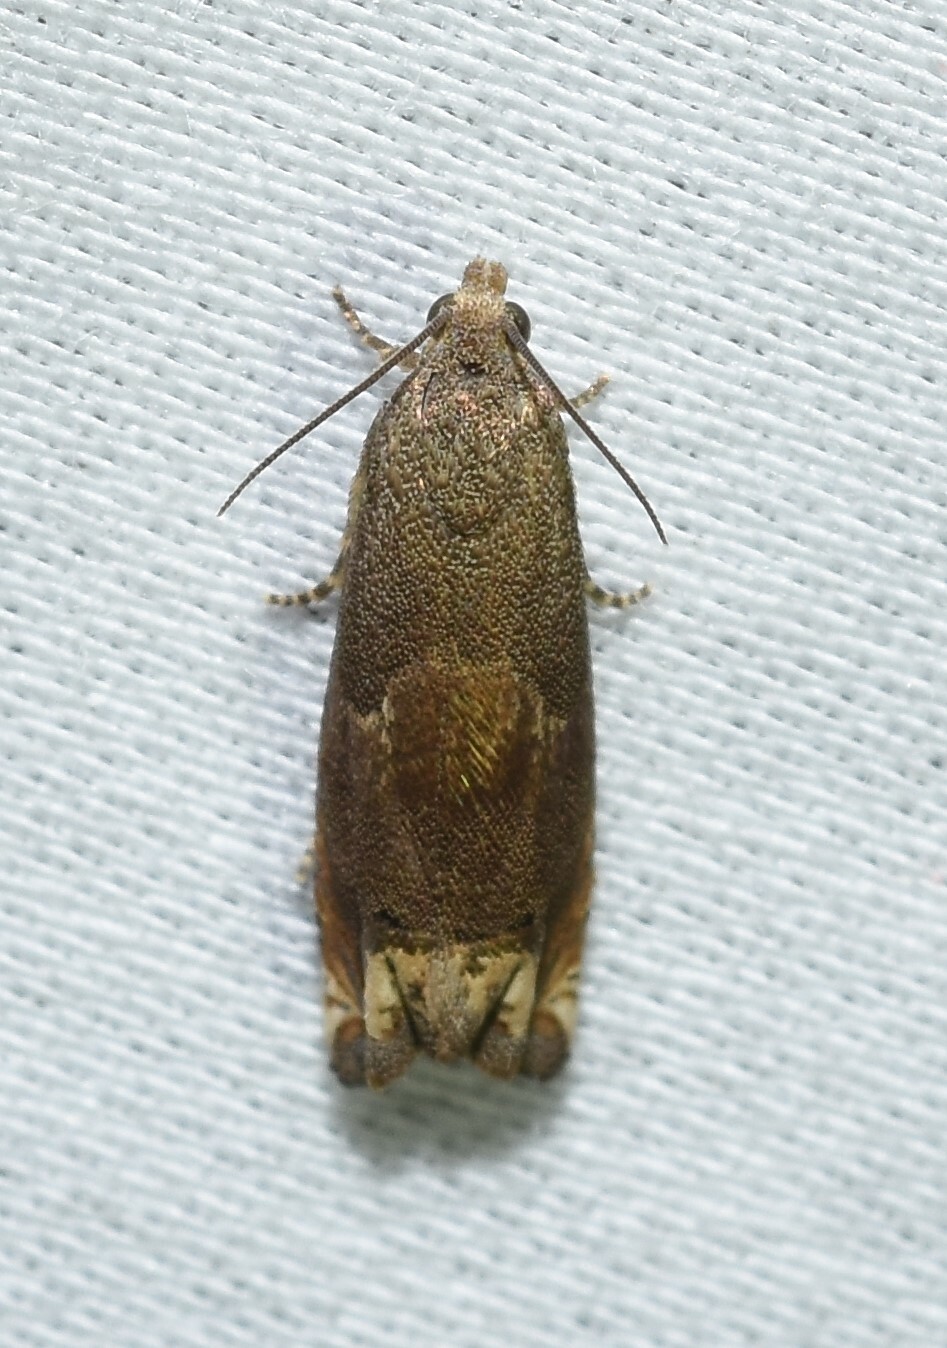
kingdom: Animalia
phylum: Arthropoda
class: Insecta
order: Lepidoptera
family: Tortricidae
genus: Epiblema
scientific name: Epiblema strenuana
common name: Ragweed borer moth
